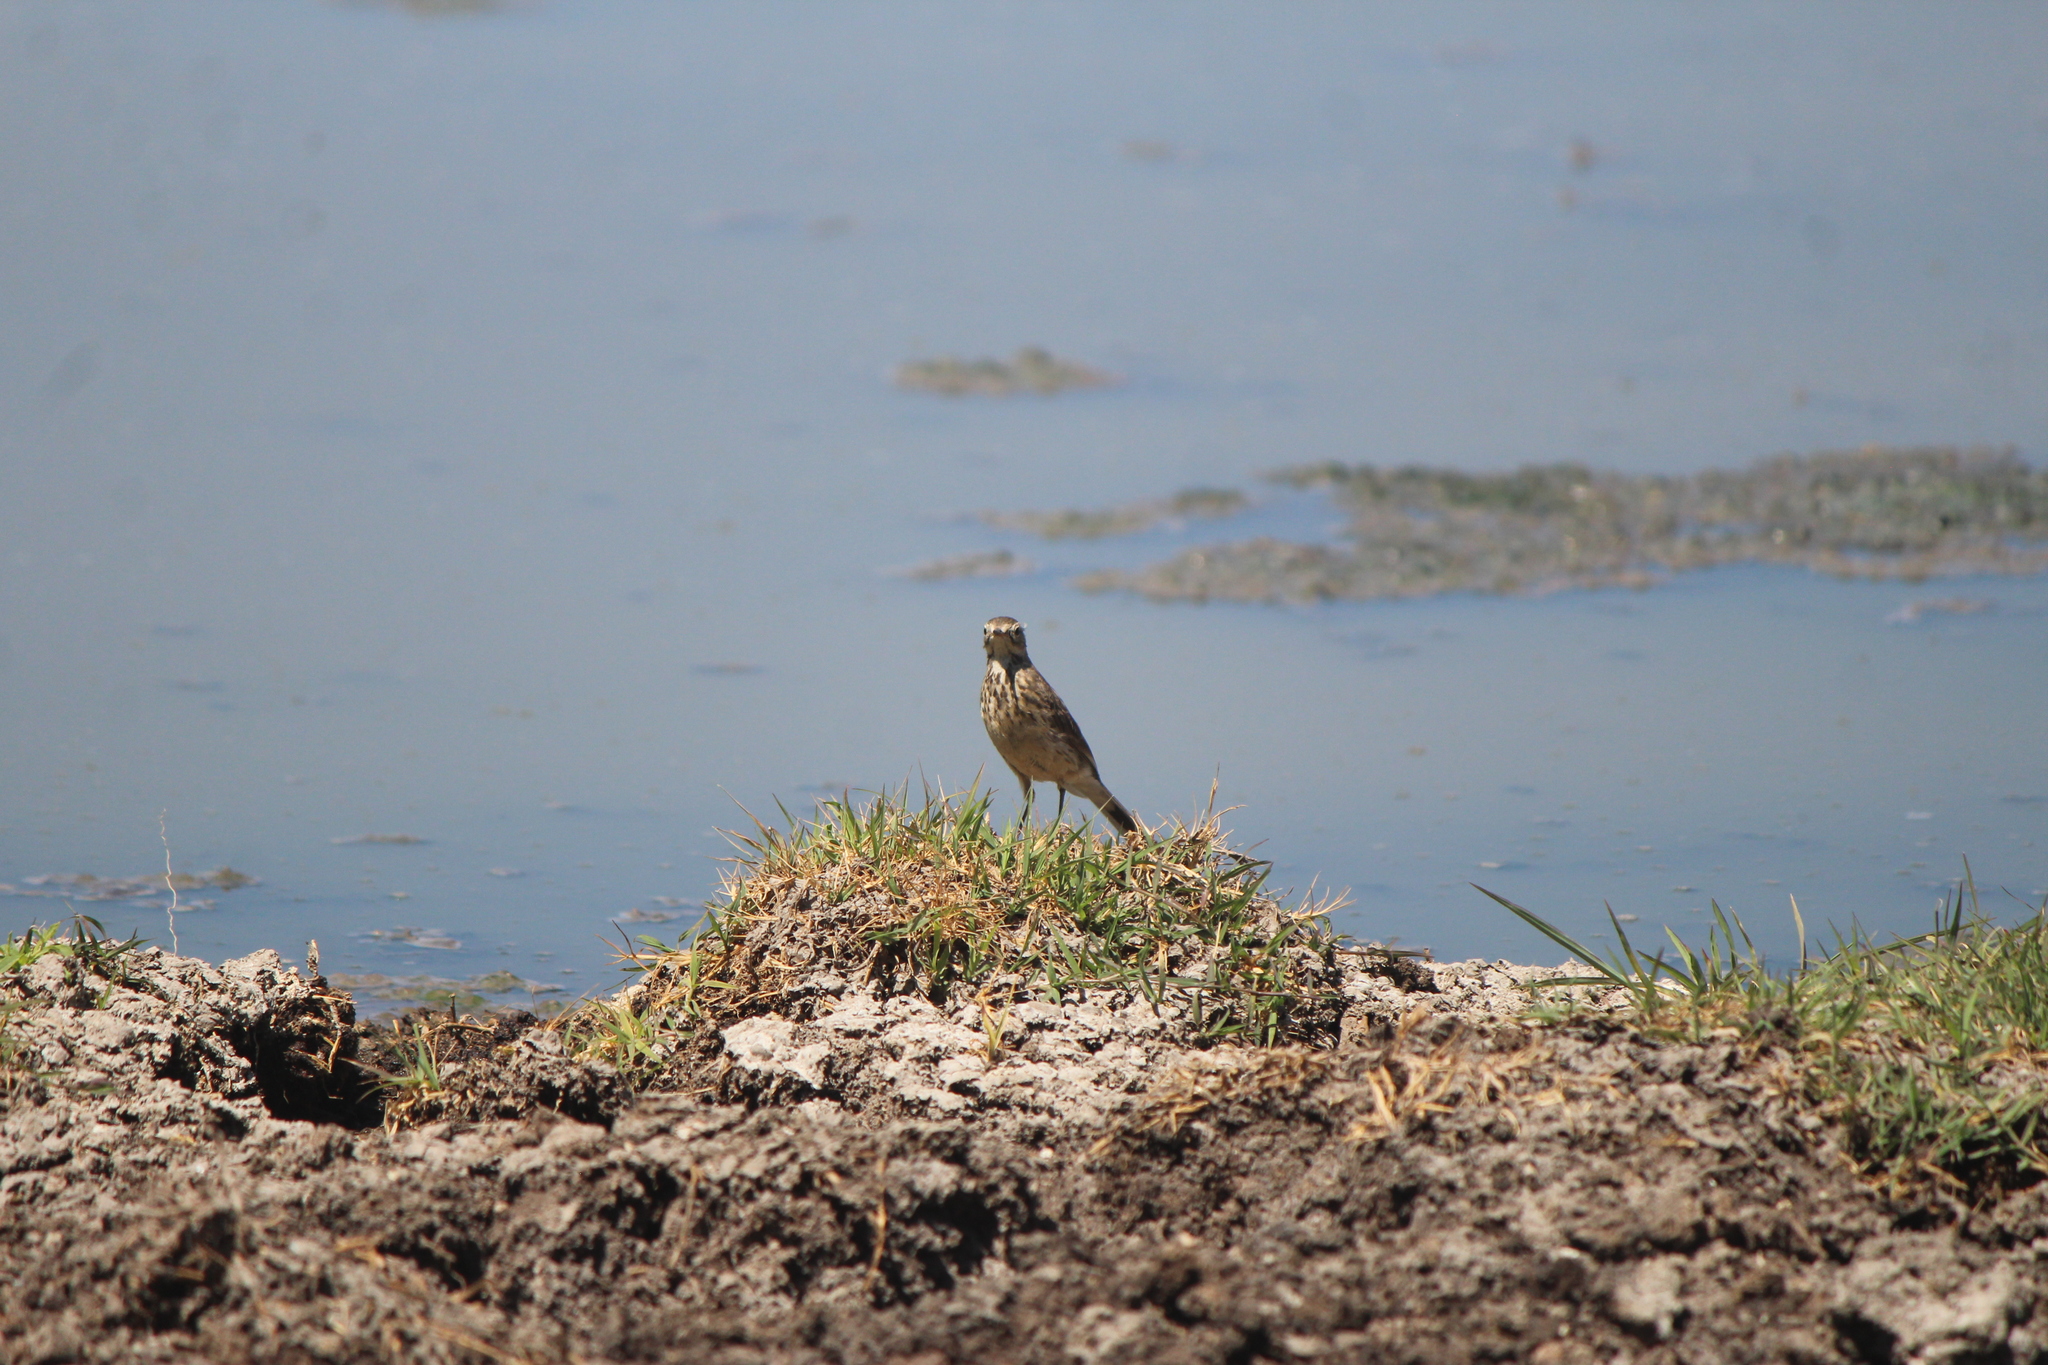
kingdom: Animalia
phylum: Chordata
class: Aves
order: Passeriformes
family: Motacillidae
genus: Anthus
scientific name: Anthus rubescens
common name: Buff-bellied pipit
